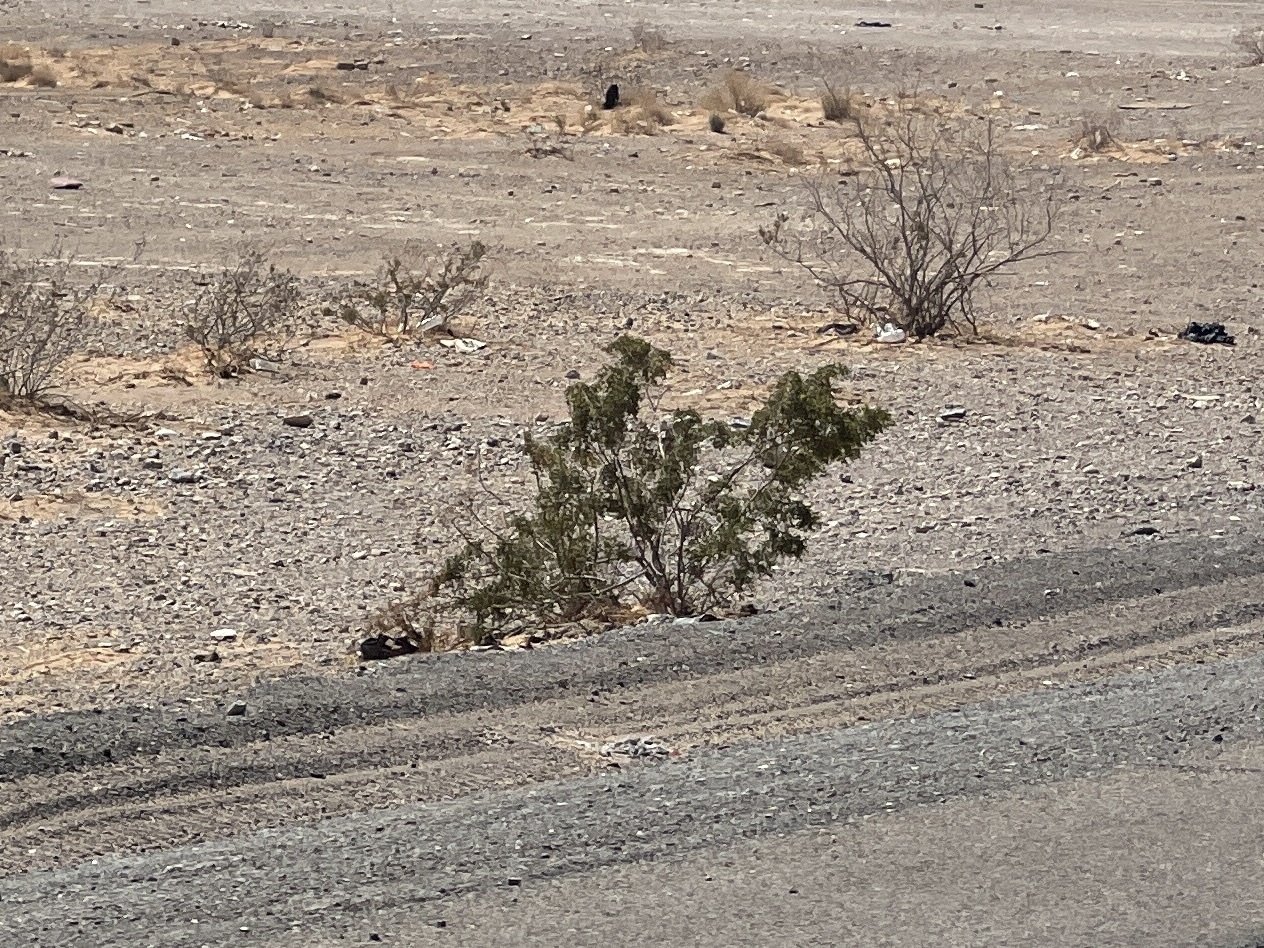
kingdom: Plantae
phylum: Tracheophyta
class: Magnoliopsida
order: Zygophyllales
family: Zygophyllaceae
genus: Larrea
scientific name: Larrea tridentata
